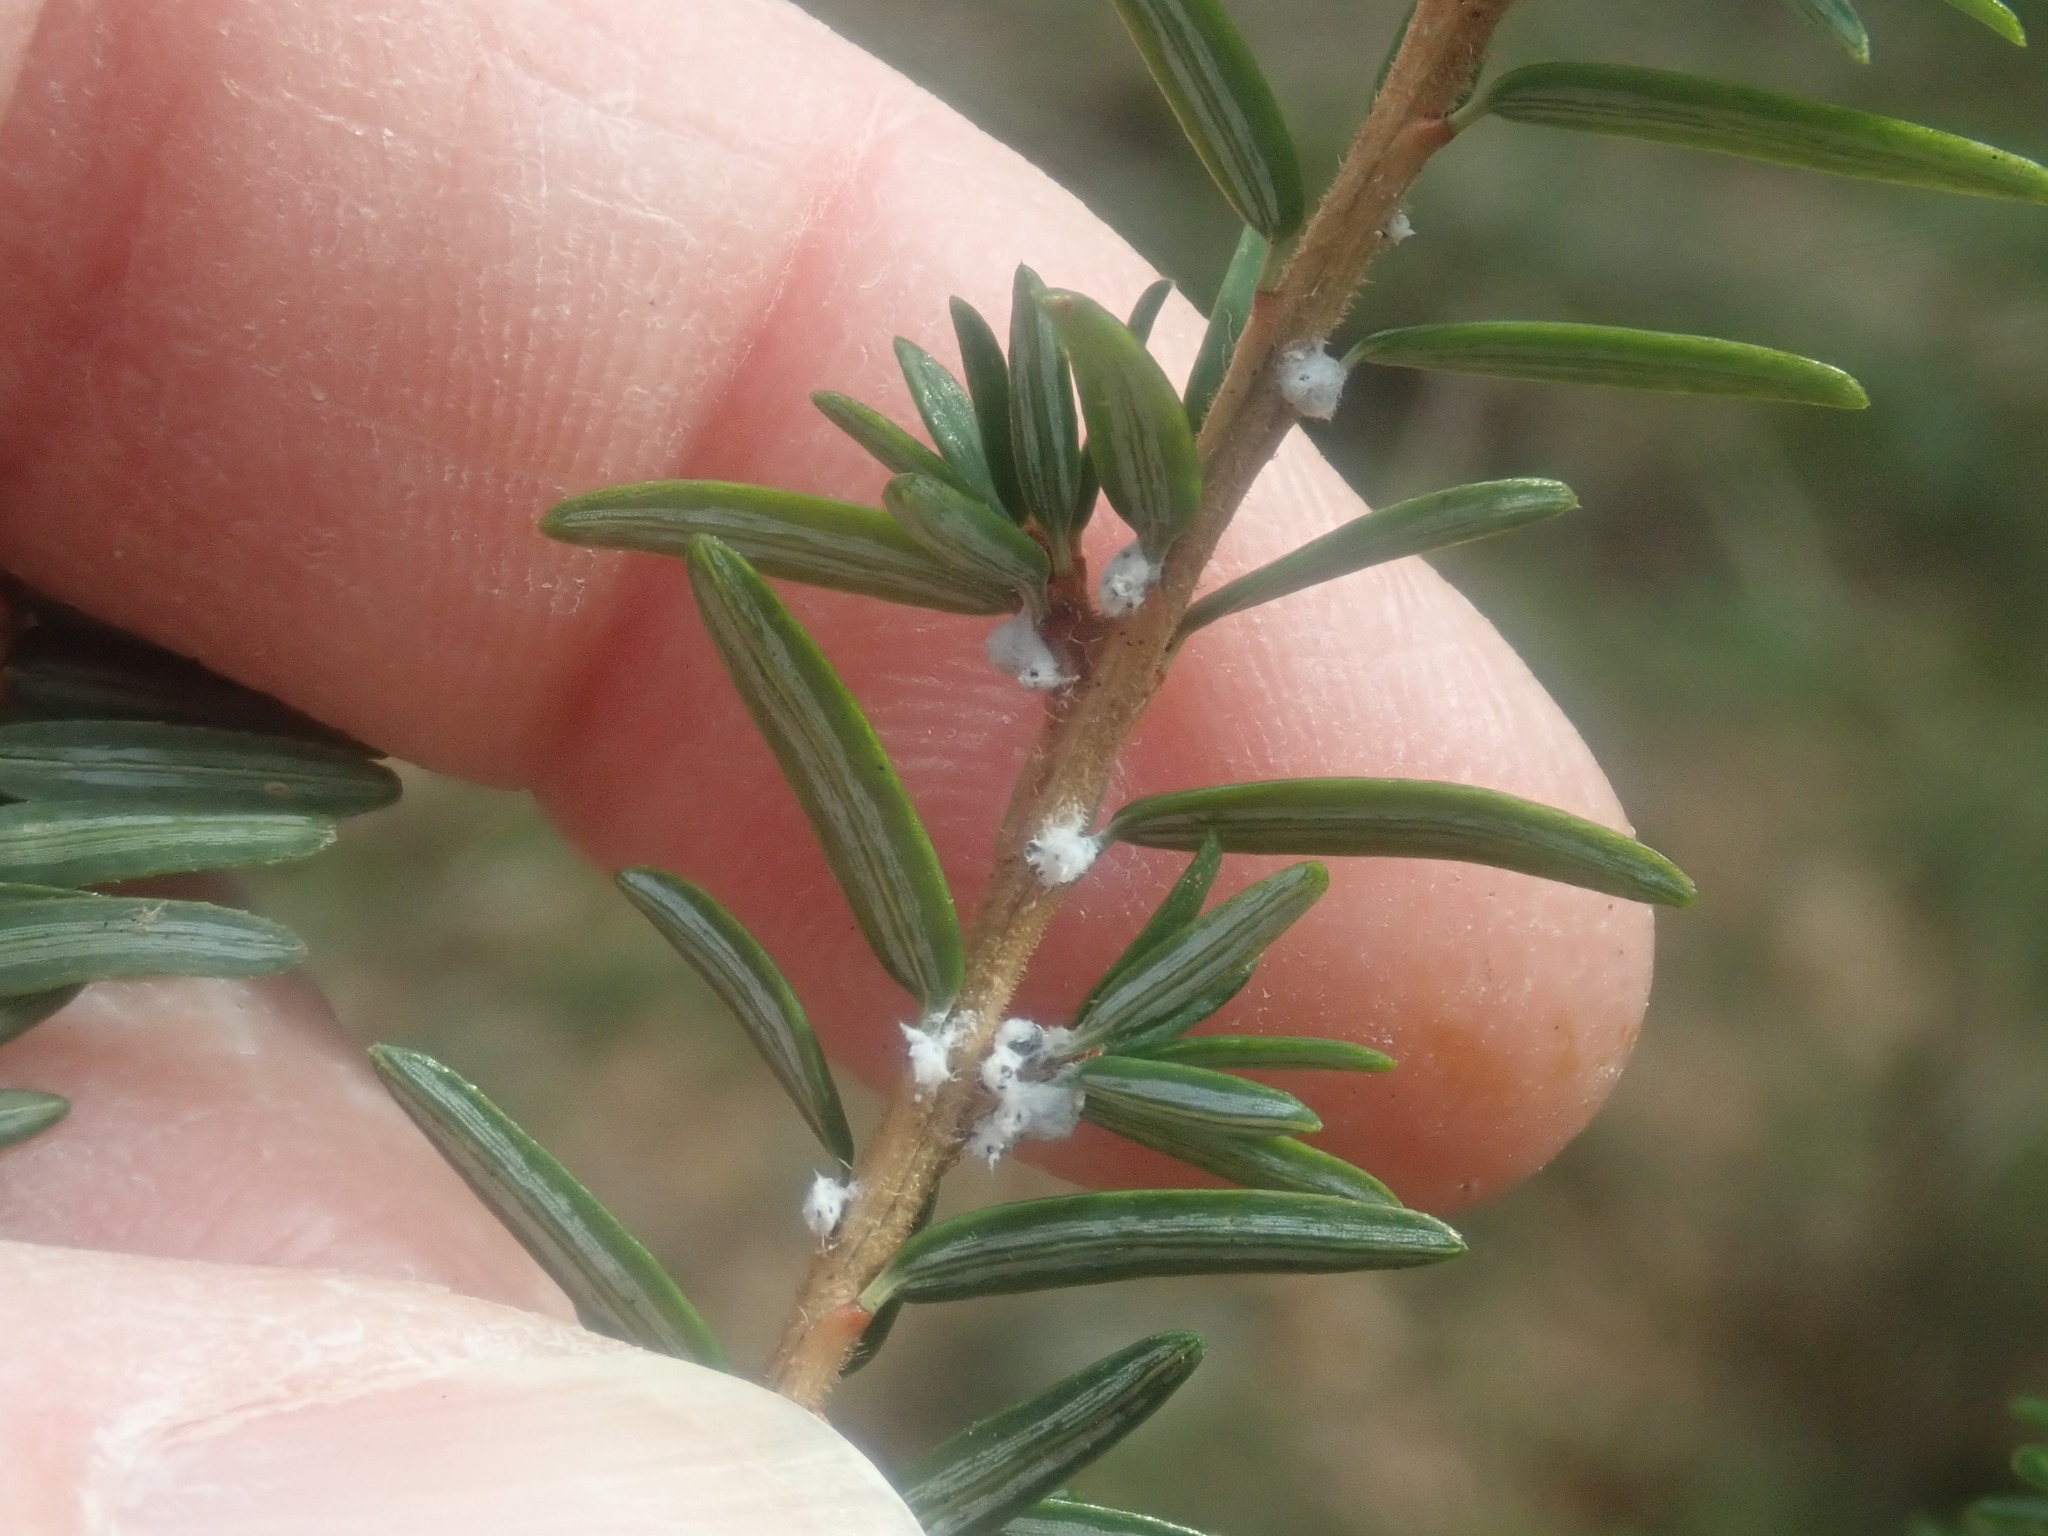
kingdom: Animalia
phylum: Arthropoda
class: Insecta
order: Hemiptera
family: Adelgidae
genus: Adelges
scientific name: Adelges tsugae
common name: Hemlock woolly adelgid
